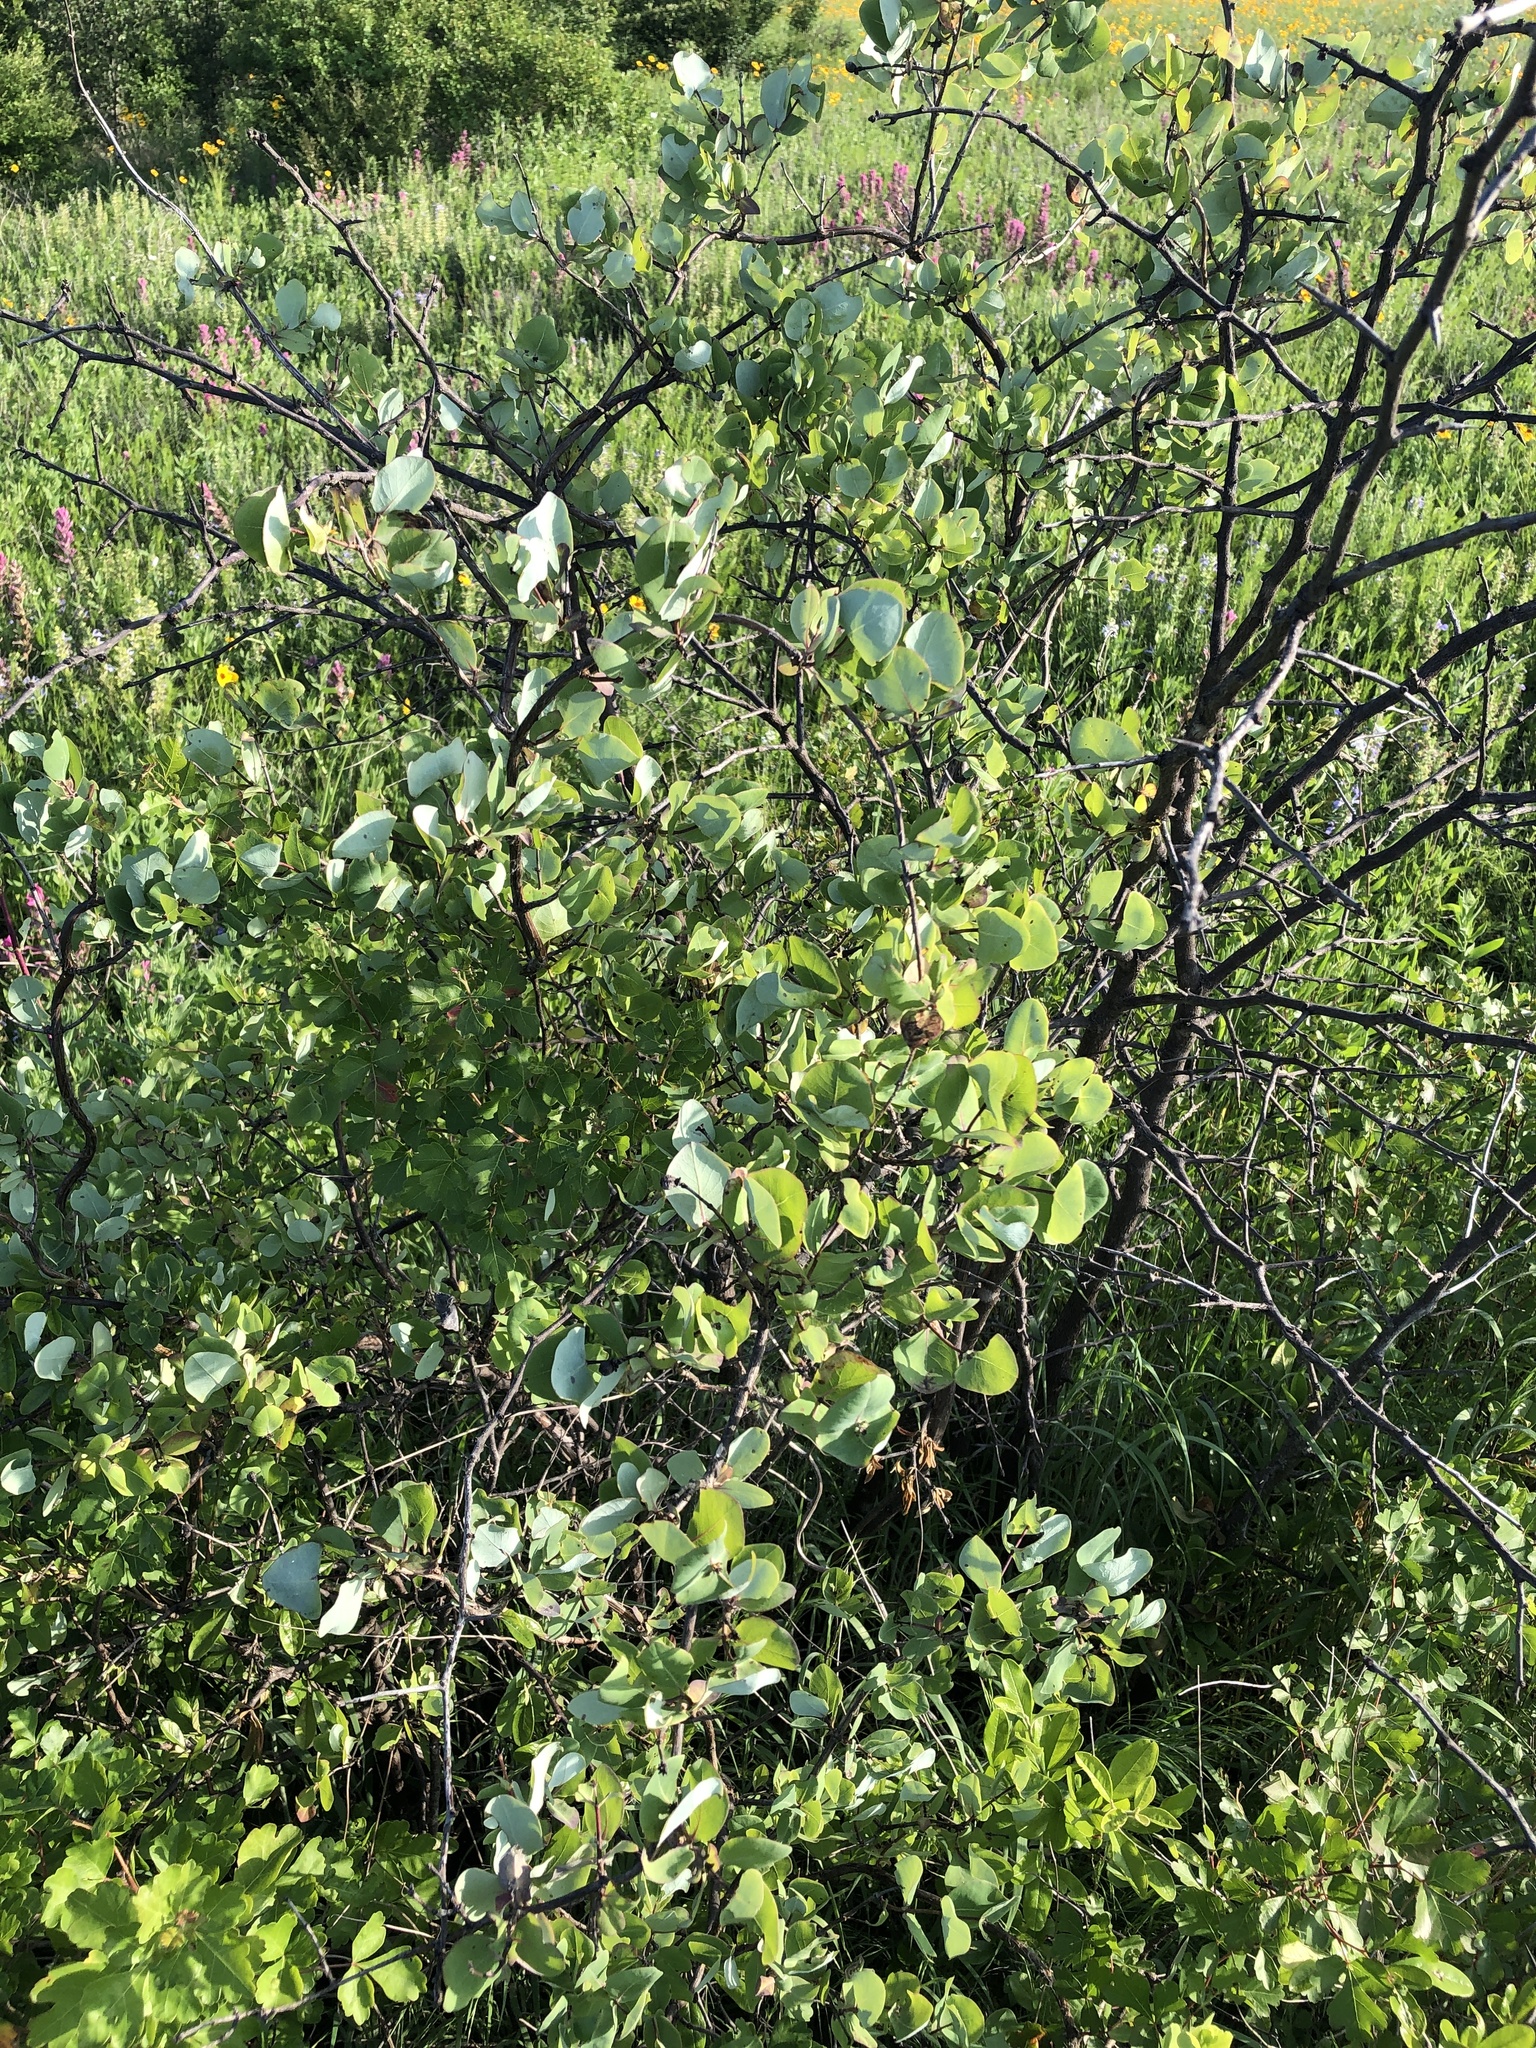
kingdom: Plantae
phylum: Tracheophyta
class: Magnoliopsida
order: Dipsacales
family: Caprifoliaceae
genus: Lonicera
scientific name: Lonicera albiflora
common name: White honeysuckle
